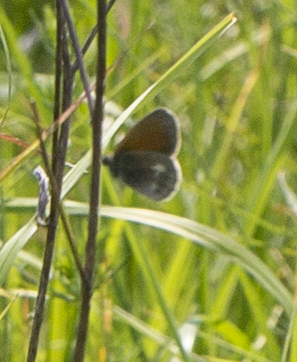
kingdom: Animalia
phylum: Arthropoda
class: Insecta
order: Lepidoptera
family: Nymphalidae
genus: Coenonympha
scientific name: Coenonympha iphis
